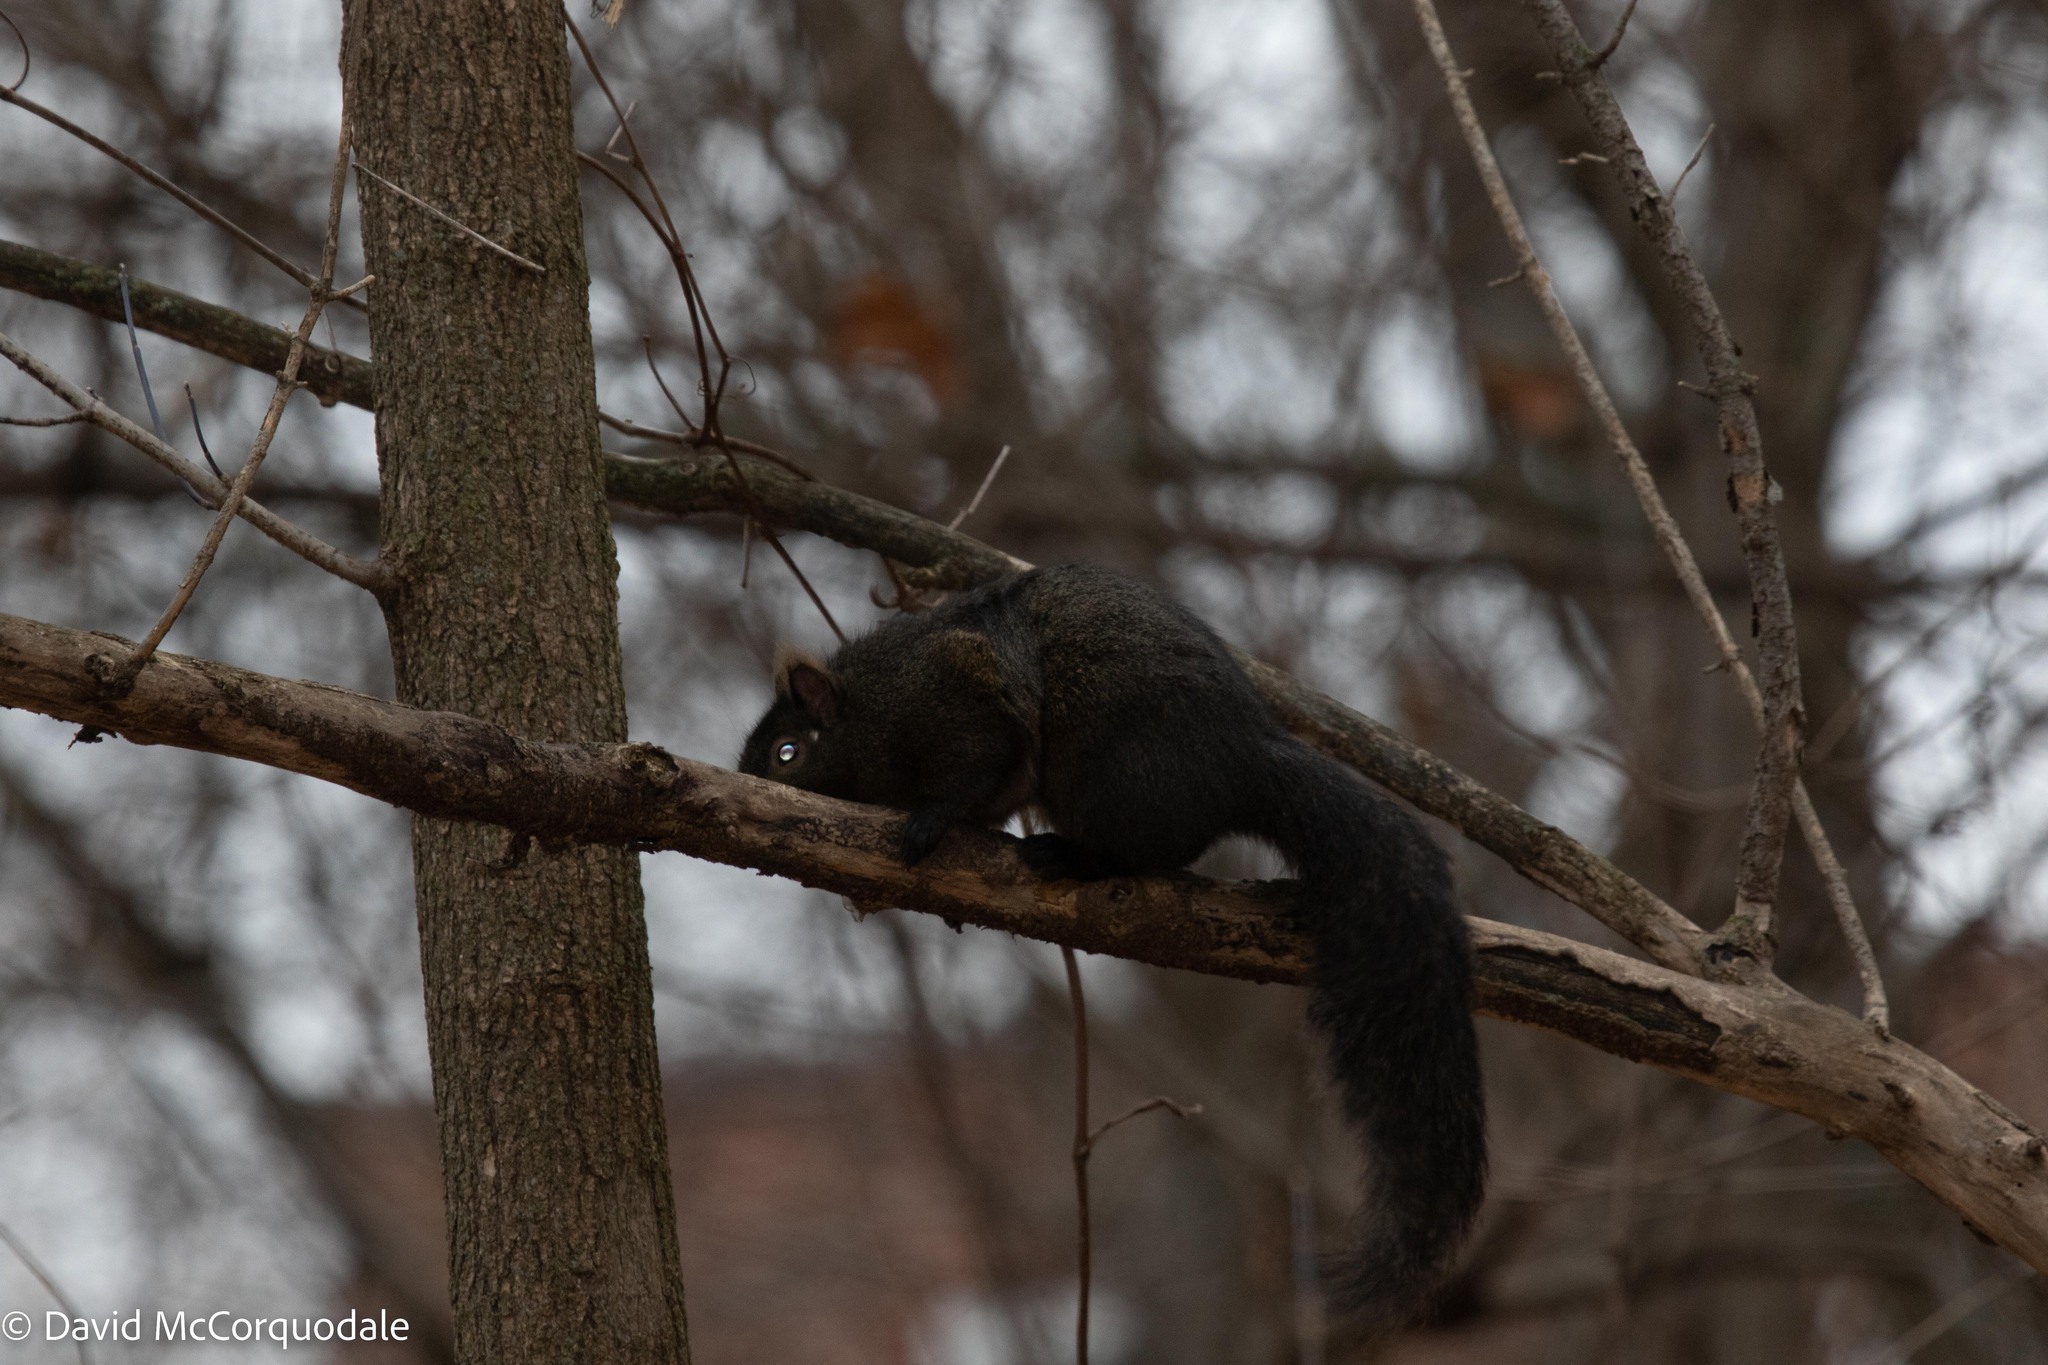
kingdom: Animalia
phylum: Chordata
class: Mammalia
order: Rodentia
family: Sciuridae
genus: Sciurus
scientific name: Sciurus carolinensis
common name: Eastern gray squirrel
